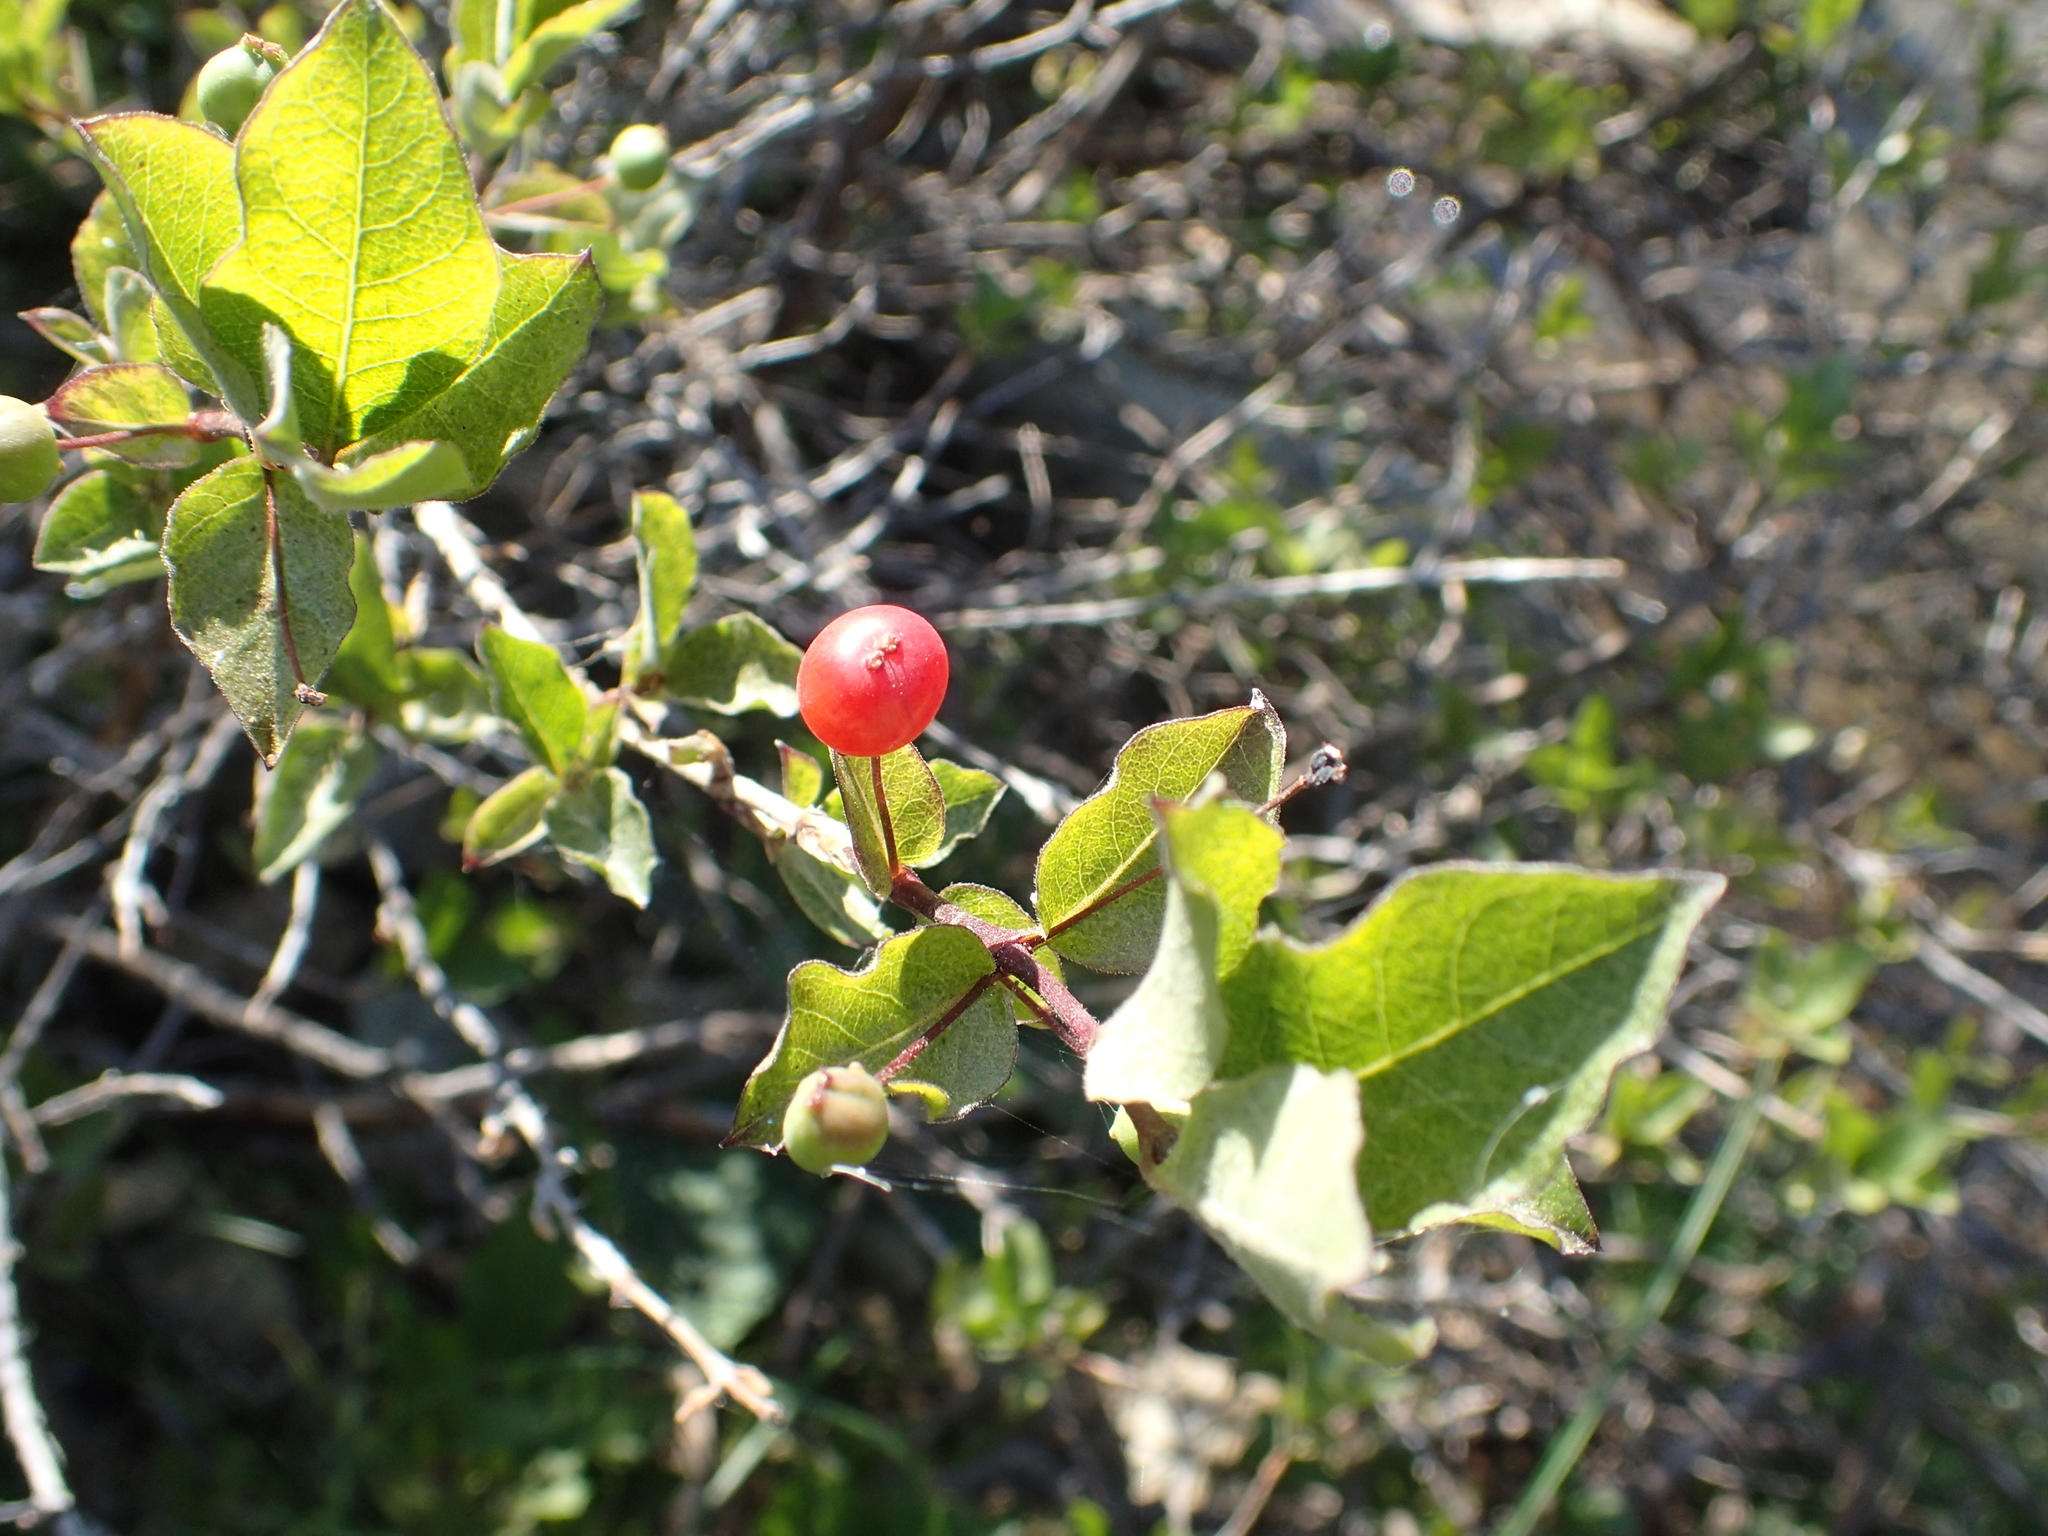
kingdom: Plantae
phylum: Tracheophyta
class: Magnoliopsida
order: Dipsacales
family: Caprifoliaceae
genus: Lonicera
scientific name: Lonicera conjugialis
